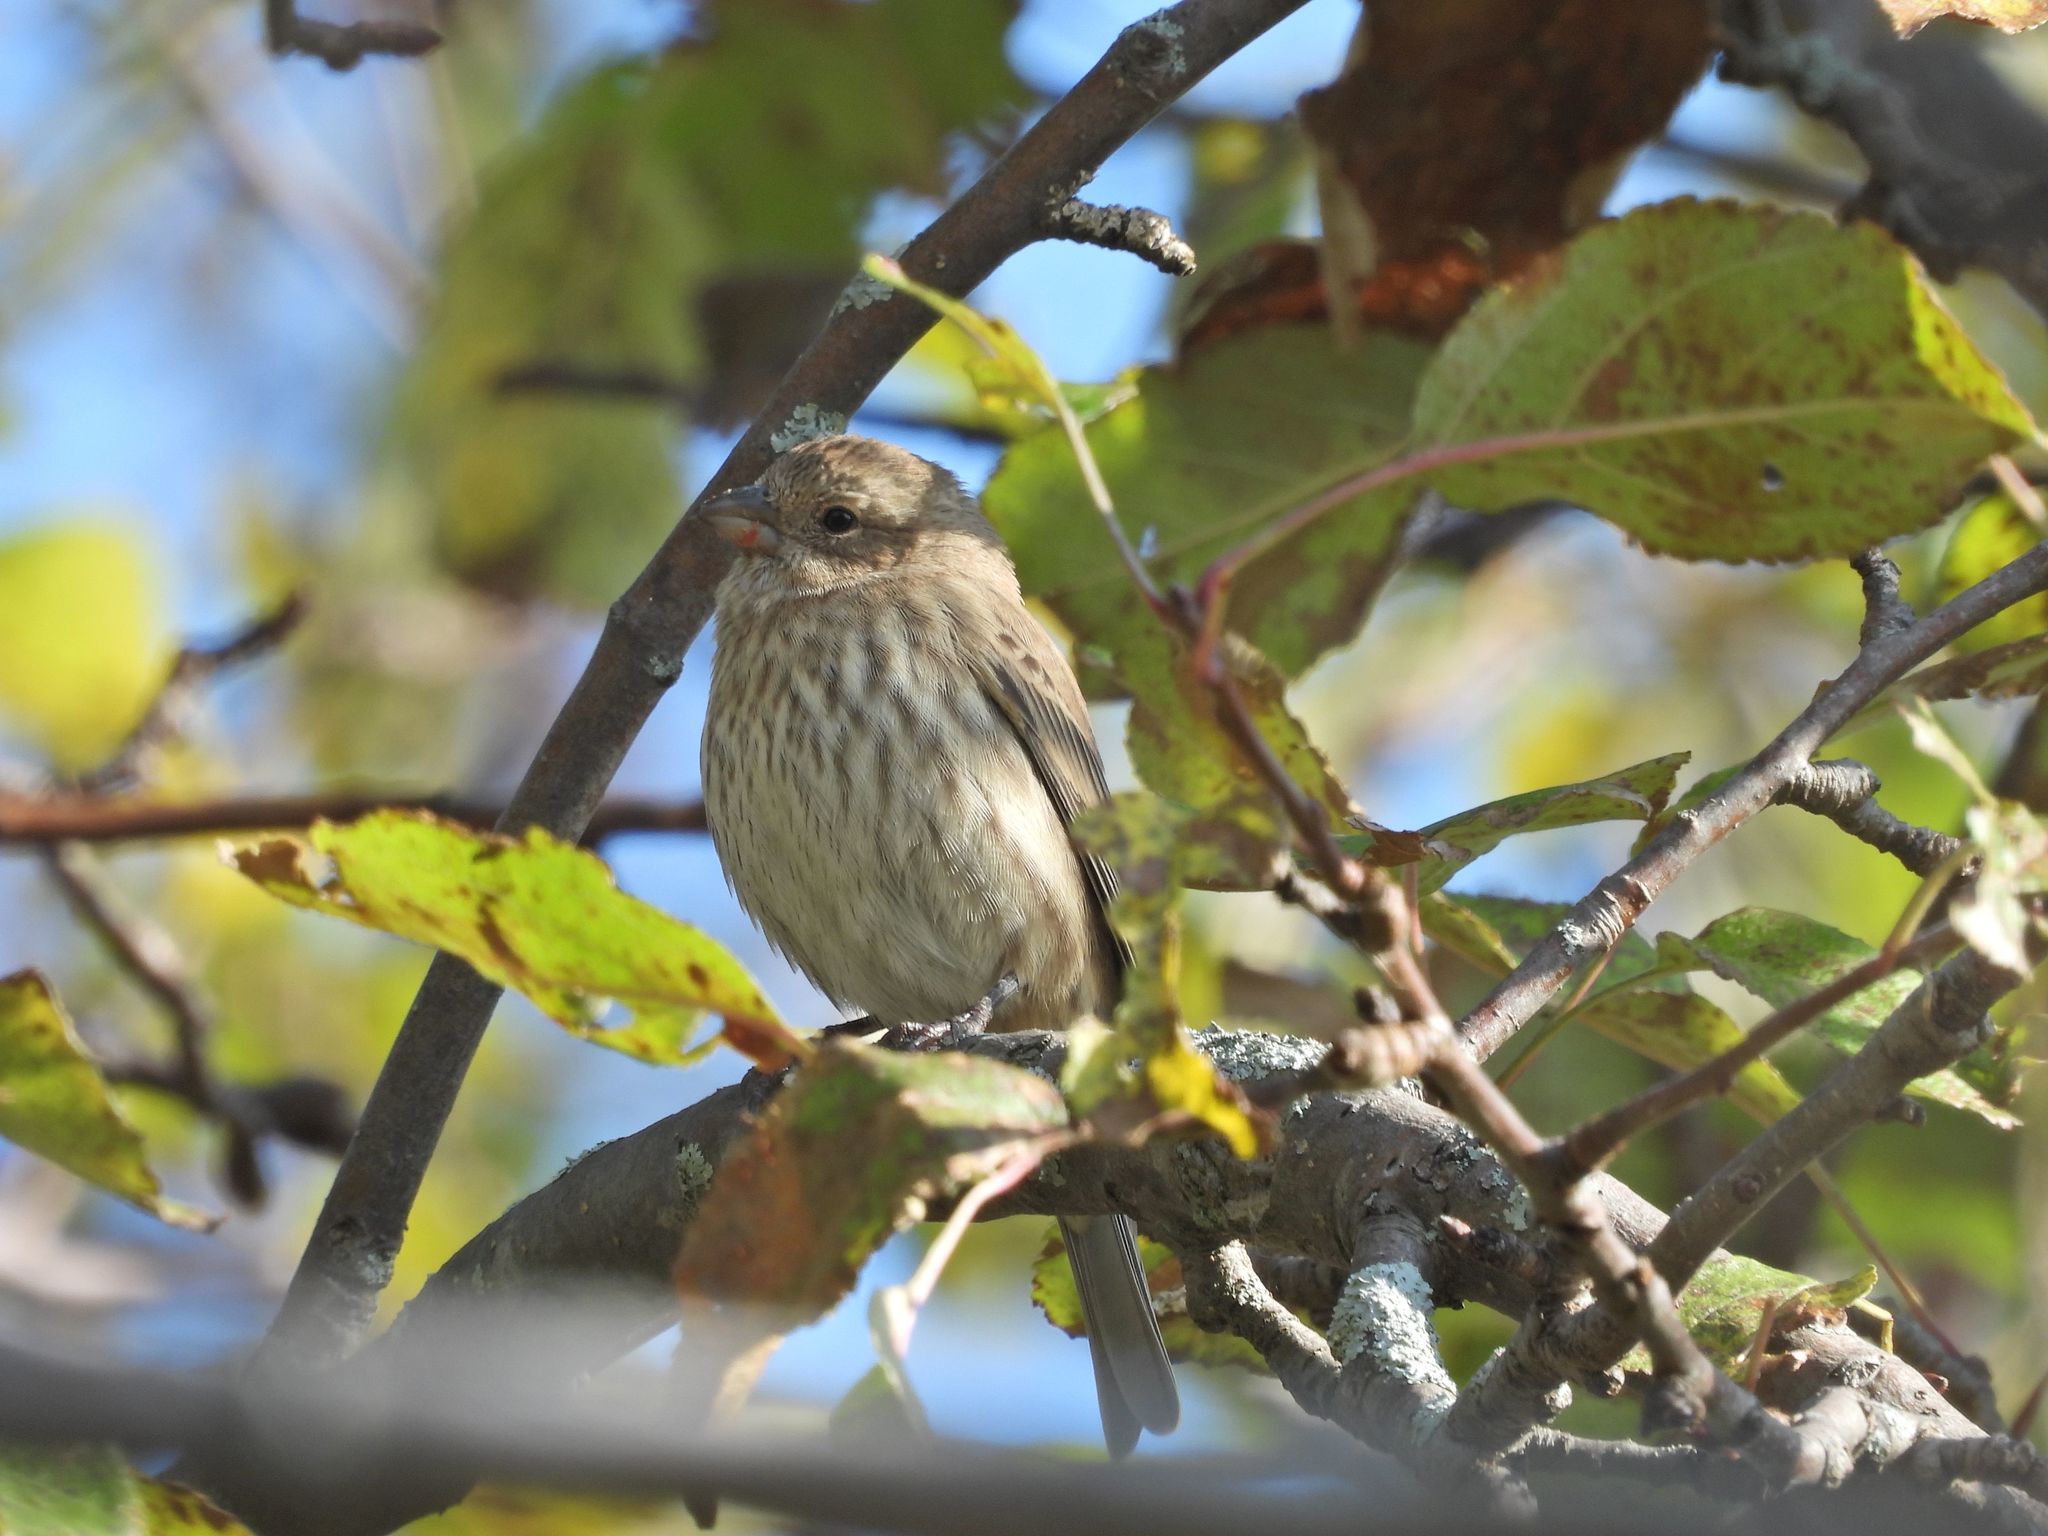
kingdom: Animalia
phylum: Chordata
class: Aves
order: Passeriformes
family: Fringillidae
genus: Haemorhous
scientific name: Haemorhous mexicanus
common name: House finch
